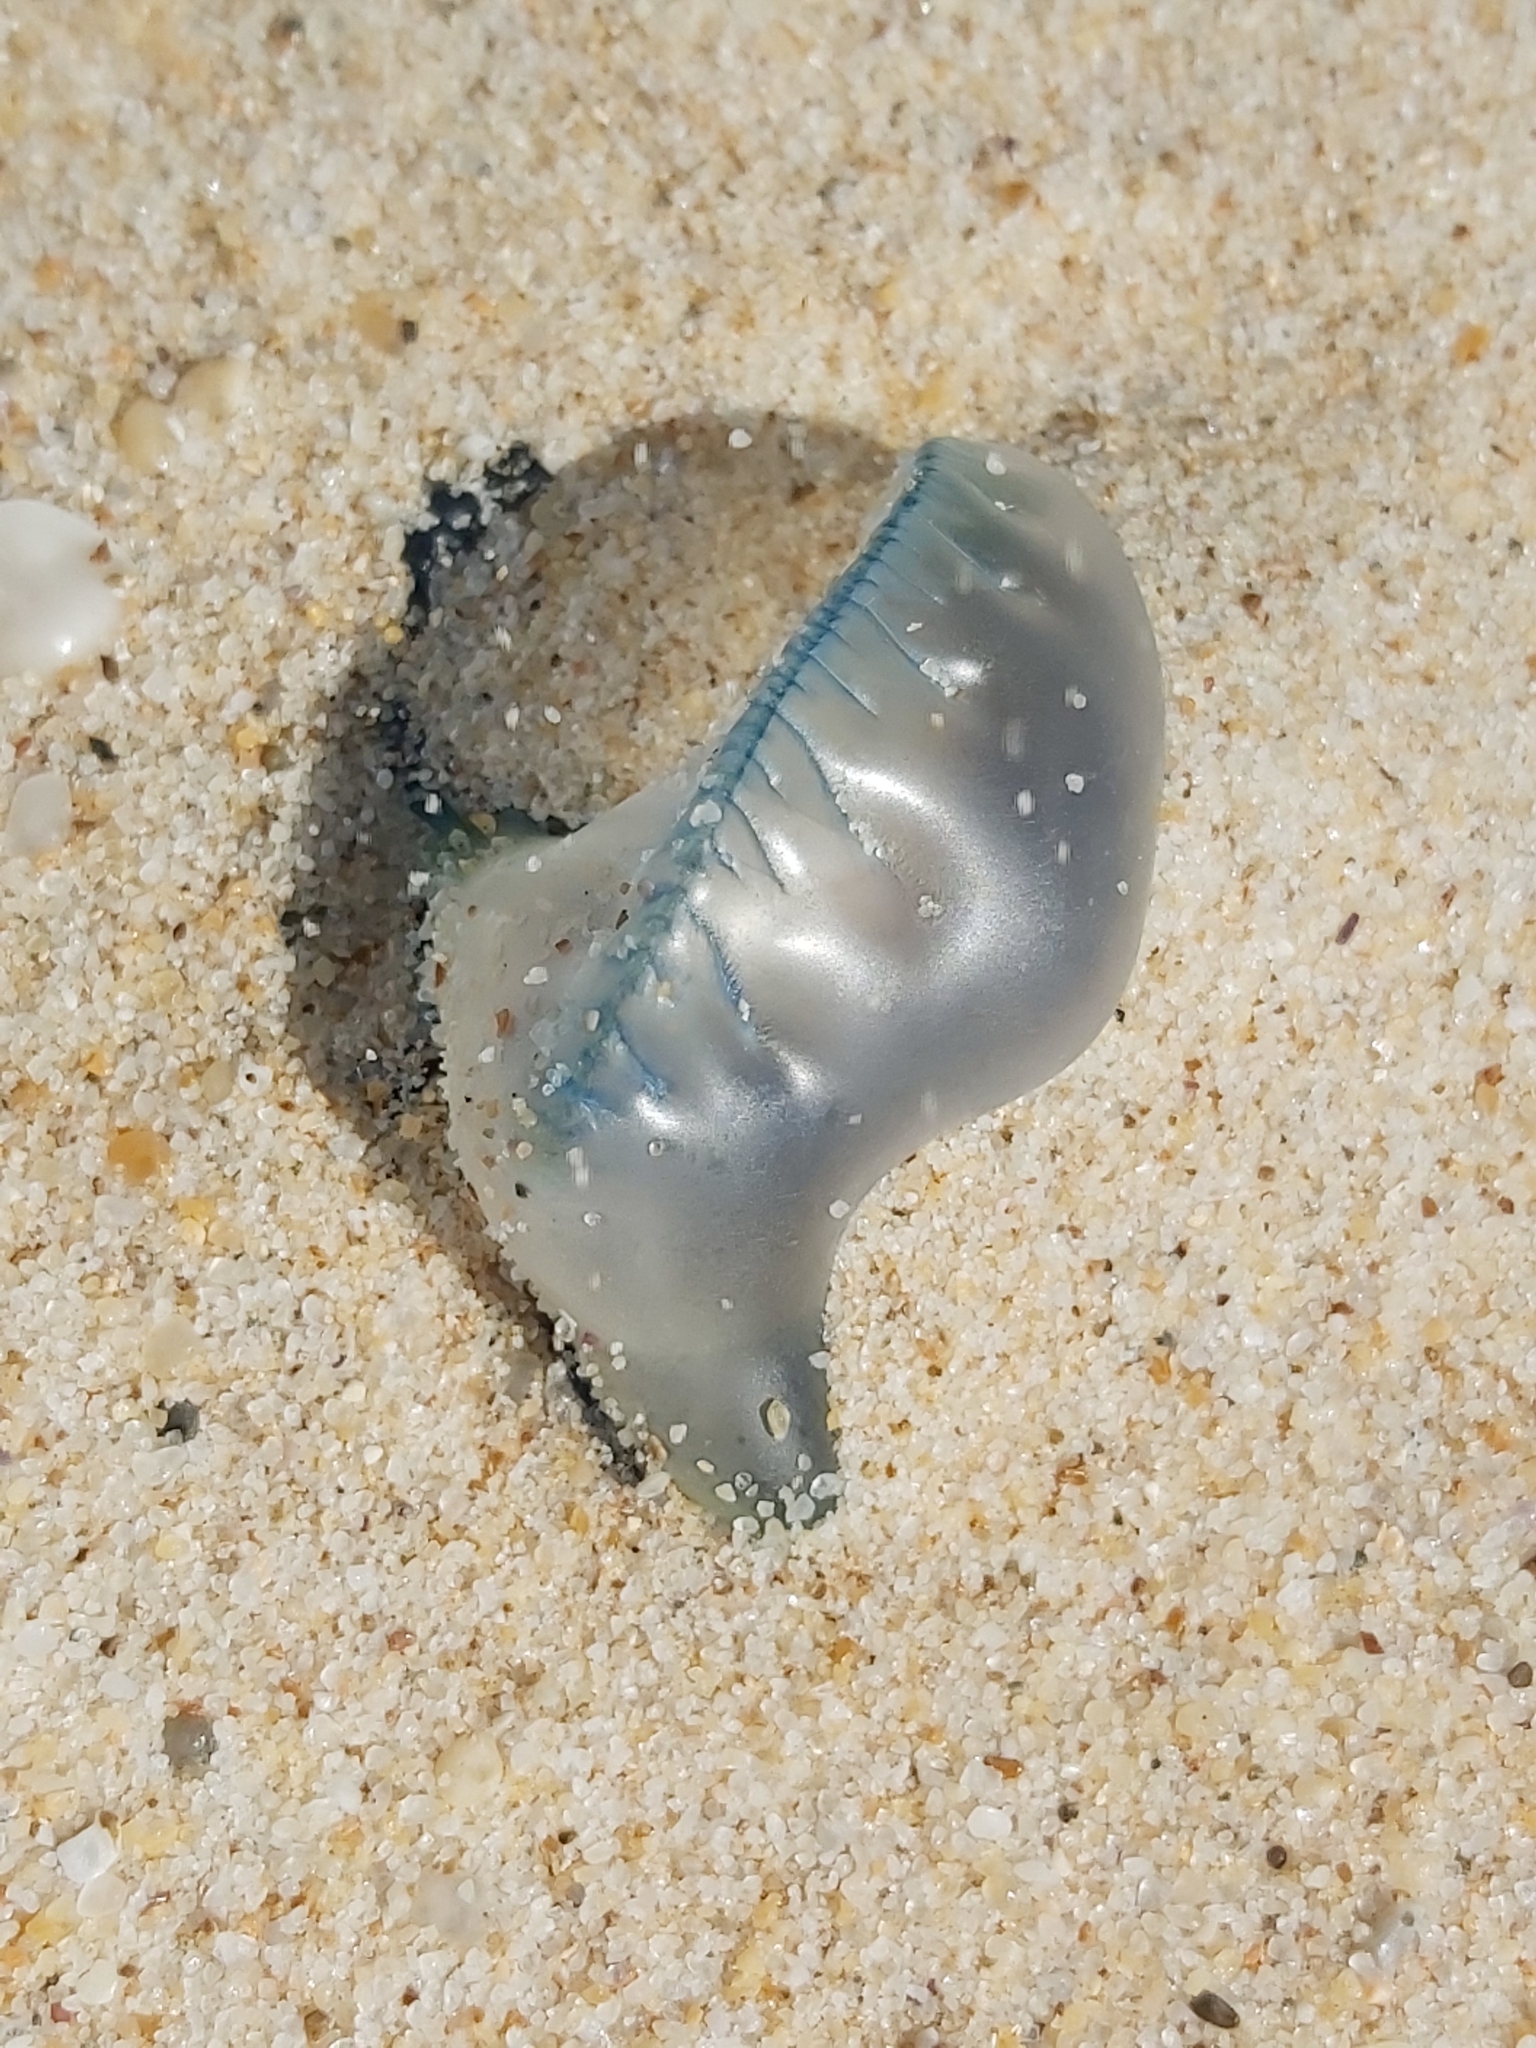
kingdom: Animalia
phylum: Cnidaria
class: Hydrozoa
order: Siphonophorae
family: Physaliidae
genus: Physalia
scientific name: Physalia physalis
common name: Portuguese man-of-war
